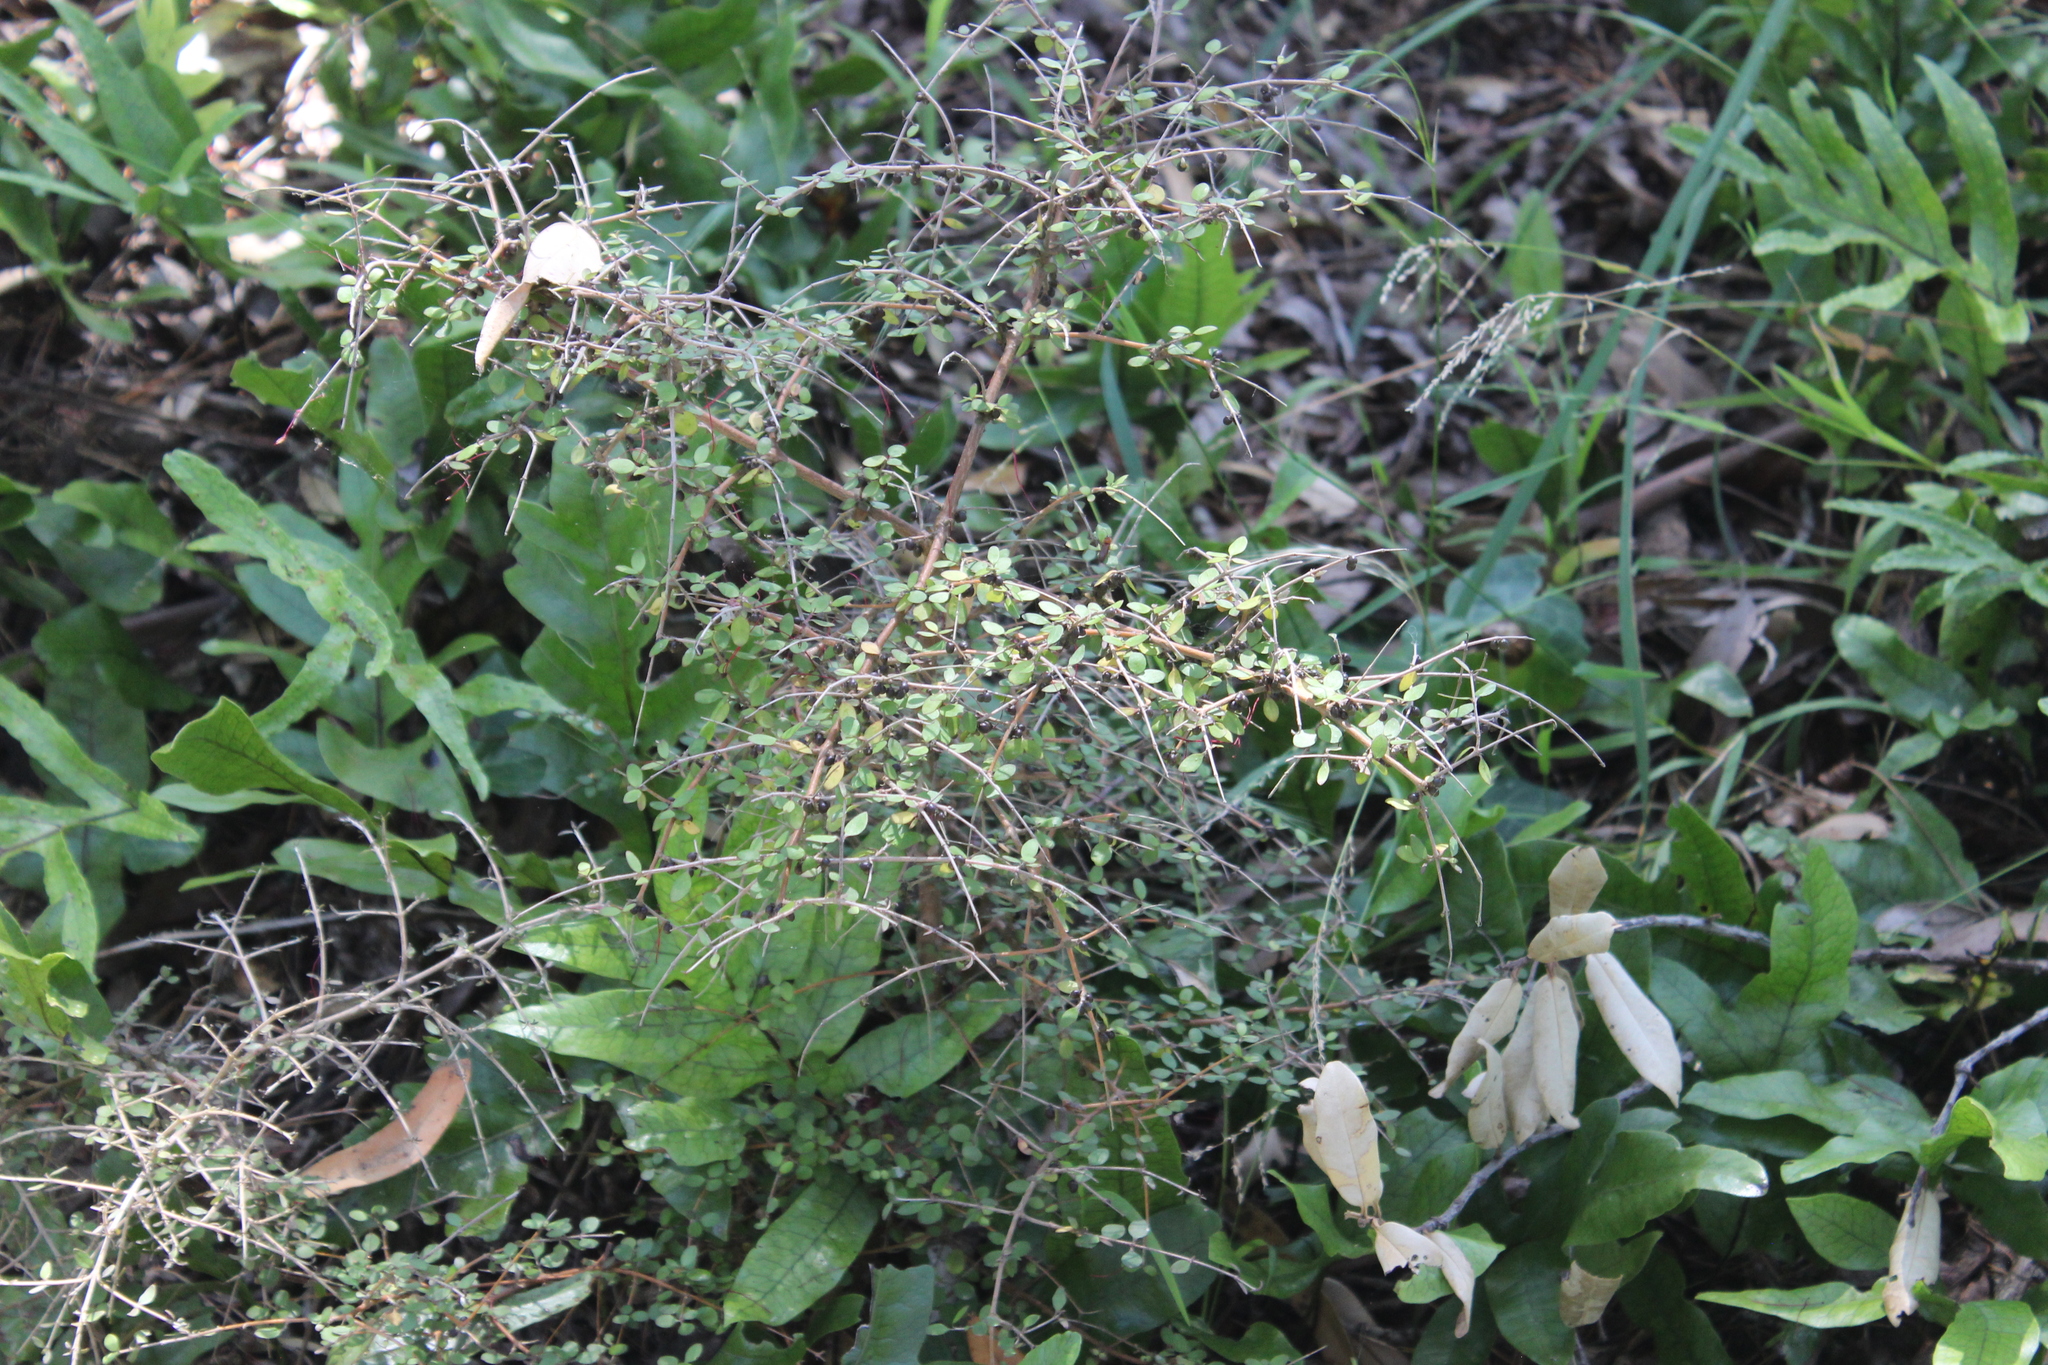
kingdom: Plantae
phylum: Tracheophyta
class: Magnoliopsida
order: Gentianales
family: Rubiaceae
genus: Coprosma
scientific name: Coprosma rhamnoides
